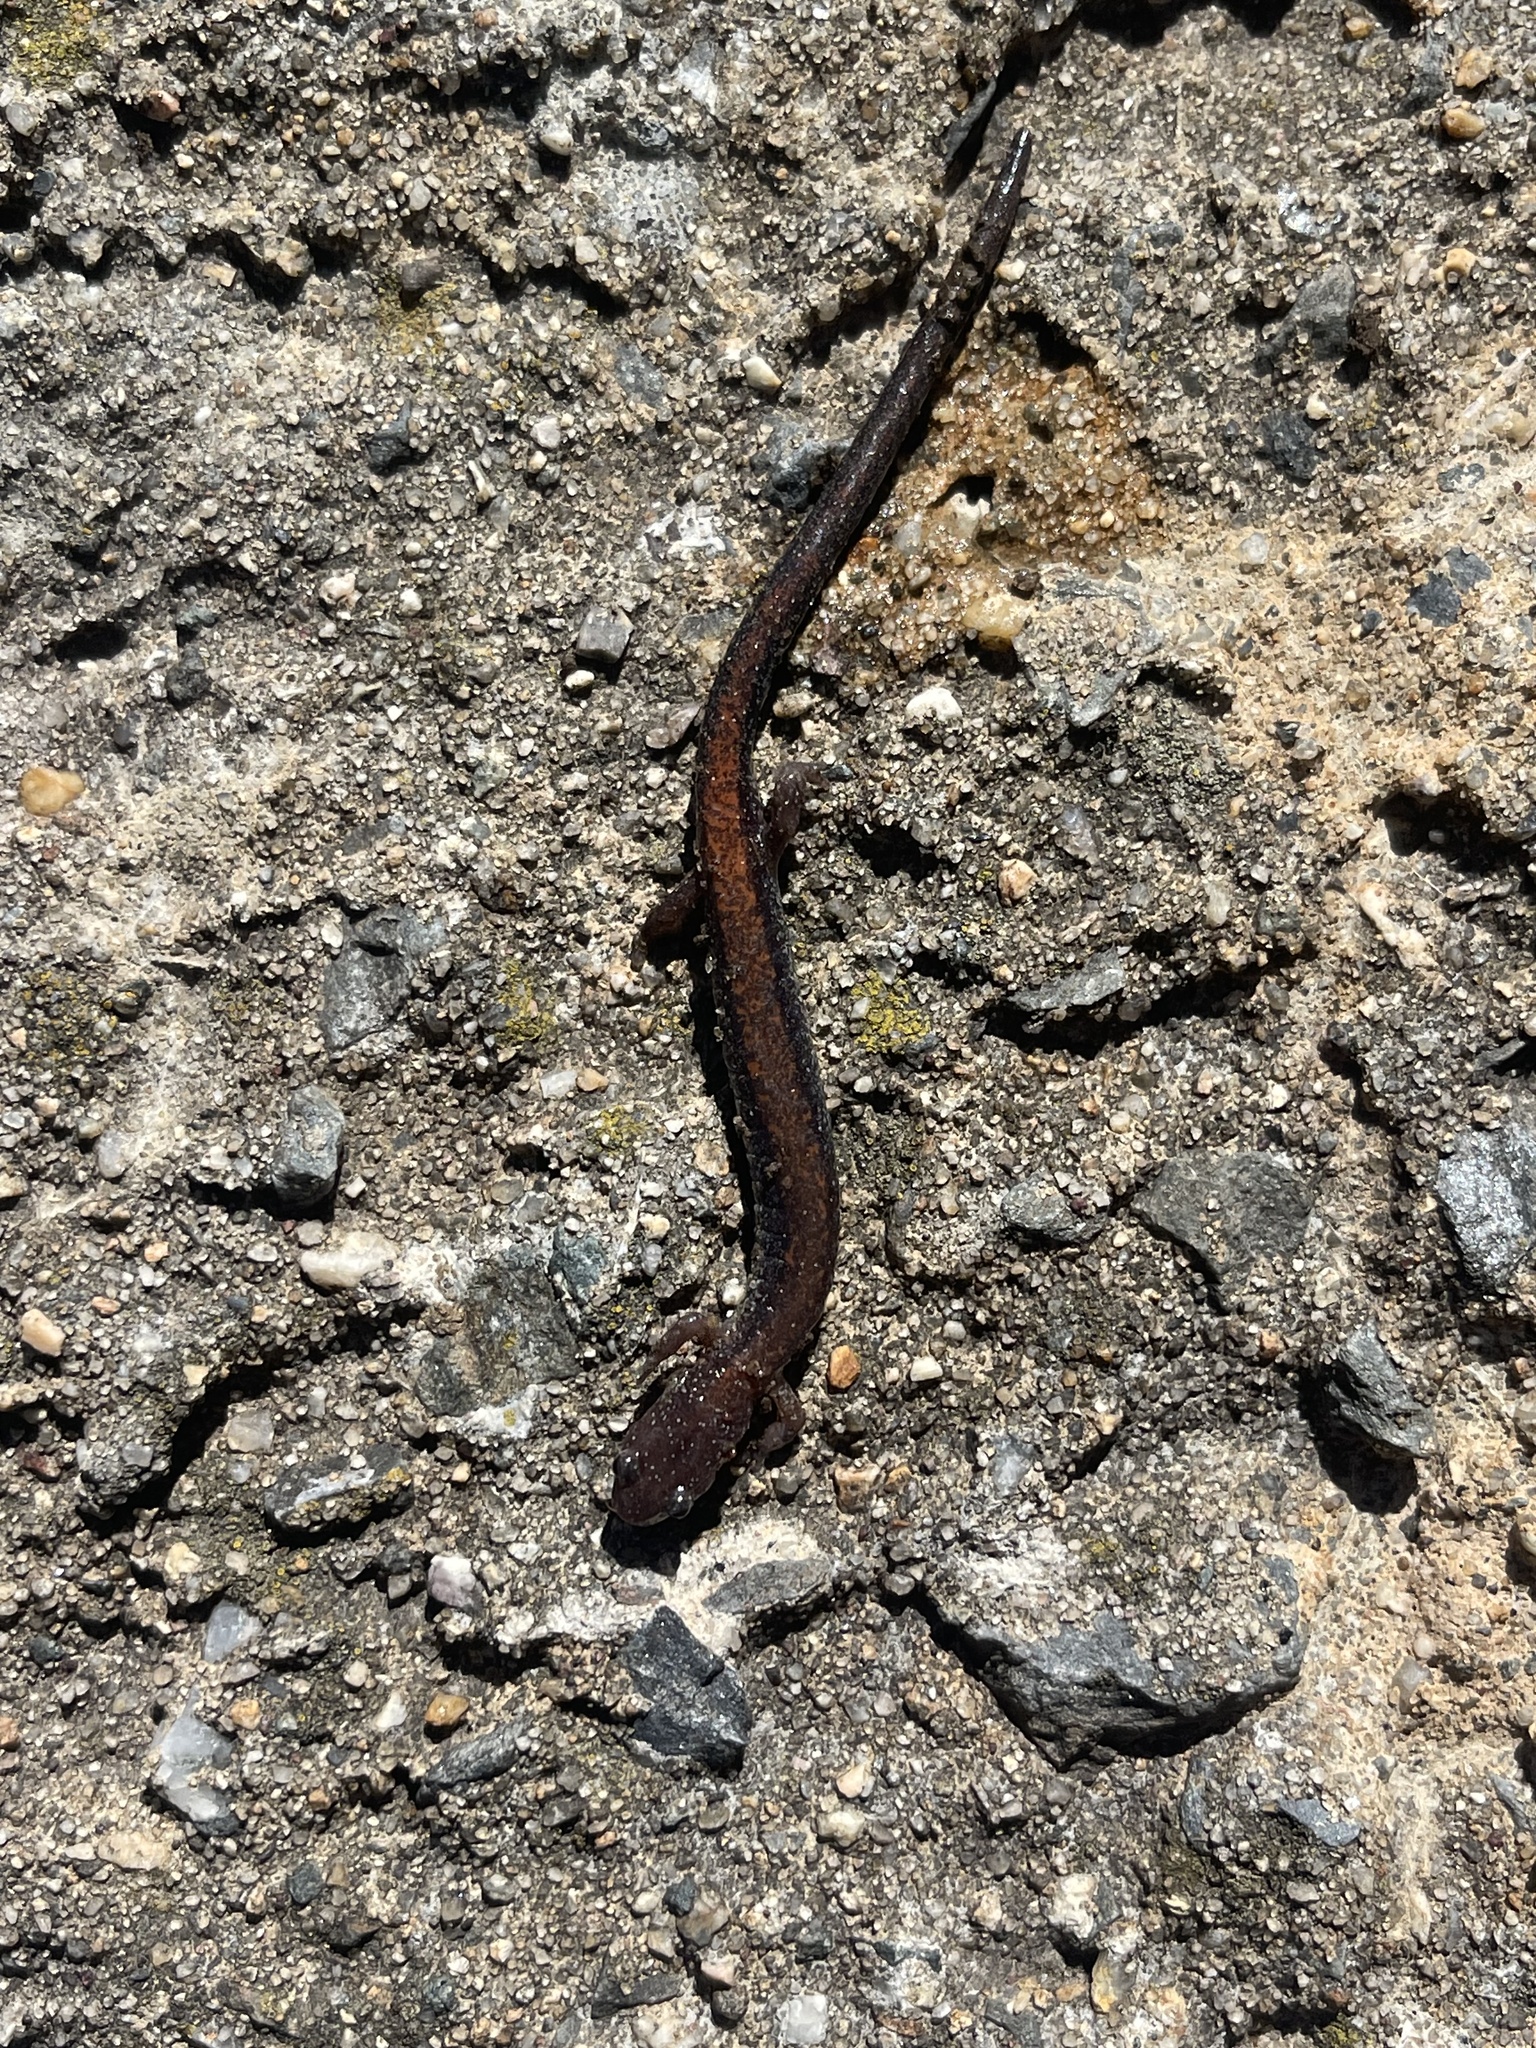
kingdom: Animalia
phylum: Chordata
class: Amphibia
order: Caudata
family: Plethodontidae
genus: Plethodon
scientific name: Plethodon cinereus
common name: Redback salamander
